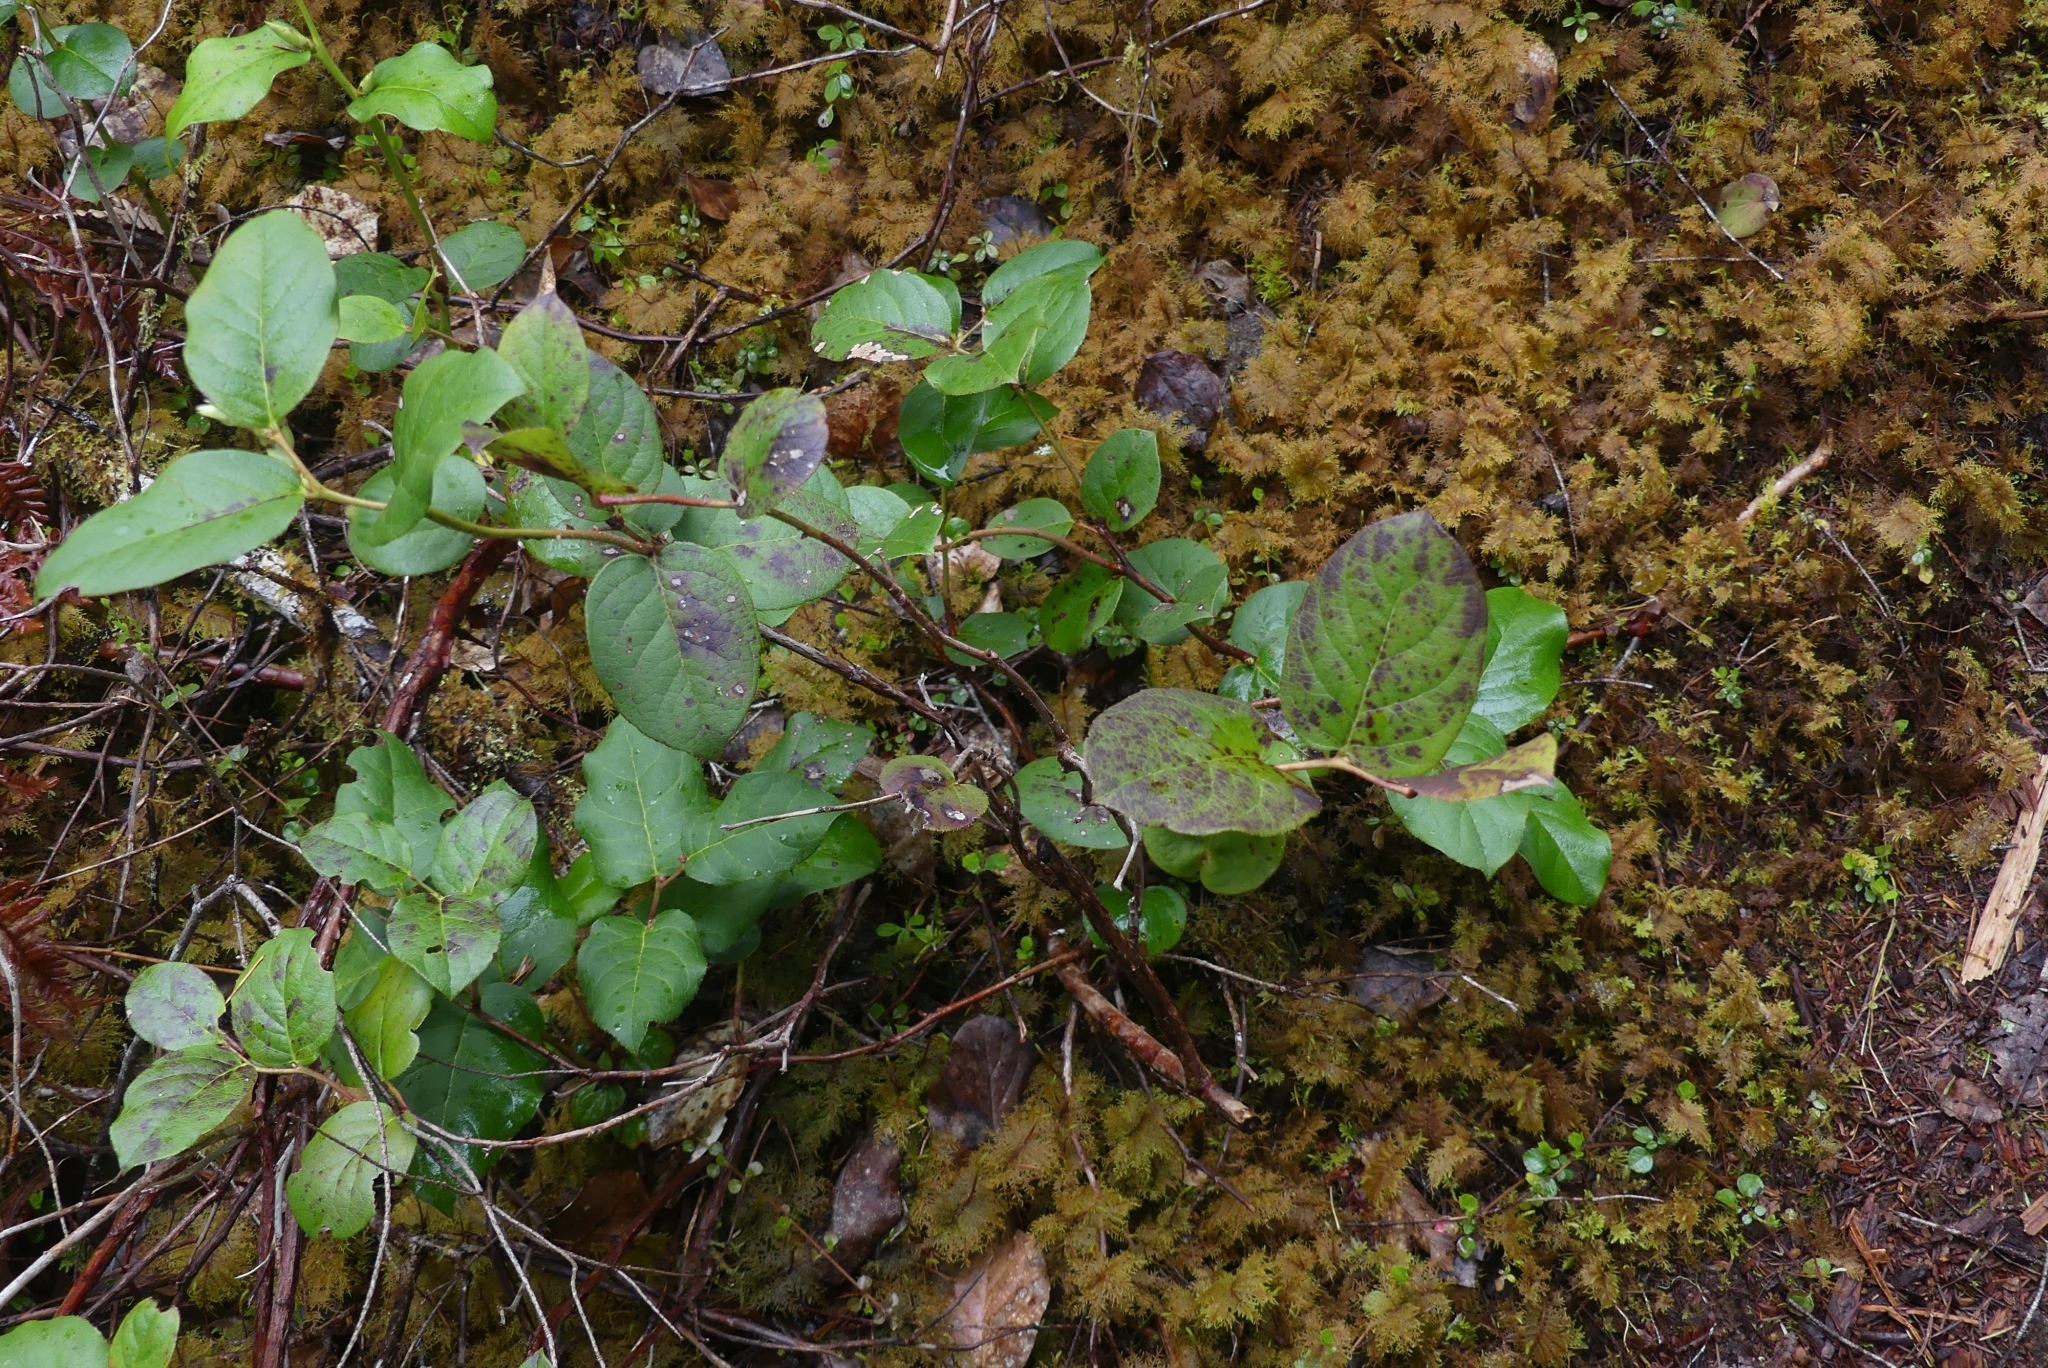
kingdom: Plantae
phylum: Tracheophyta
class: Magnoliopsida
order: Ericales
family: Ericaceae
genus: Gaultheria
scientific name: Gaultheria shallon
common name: Shallon
